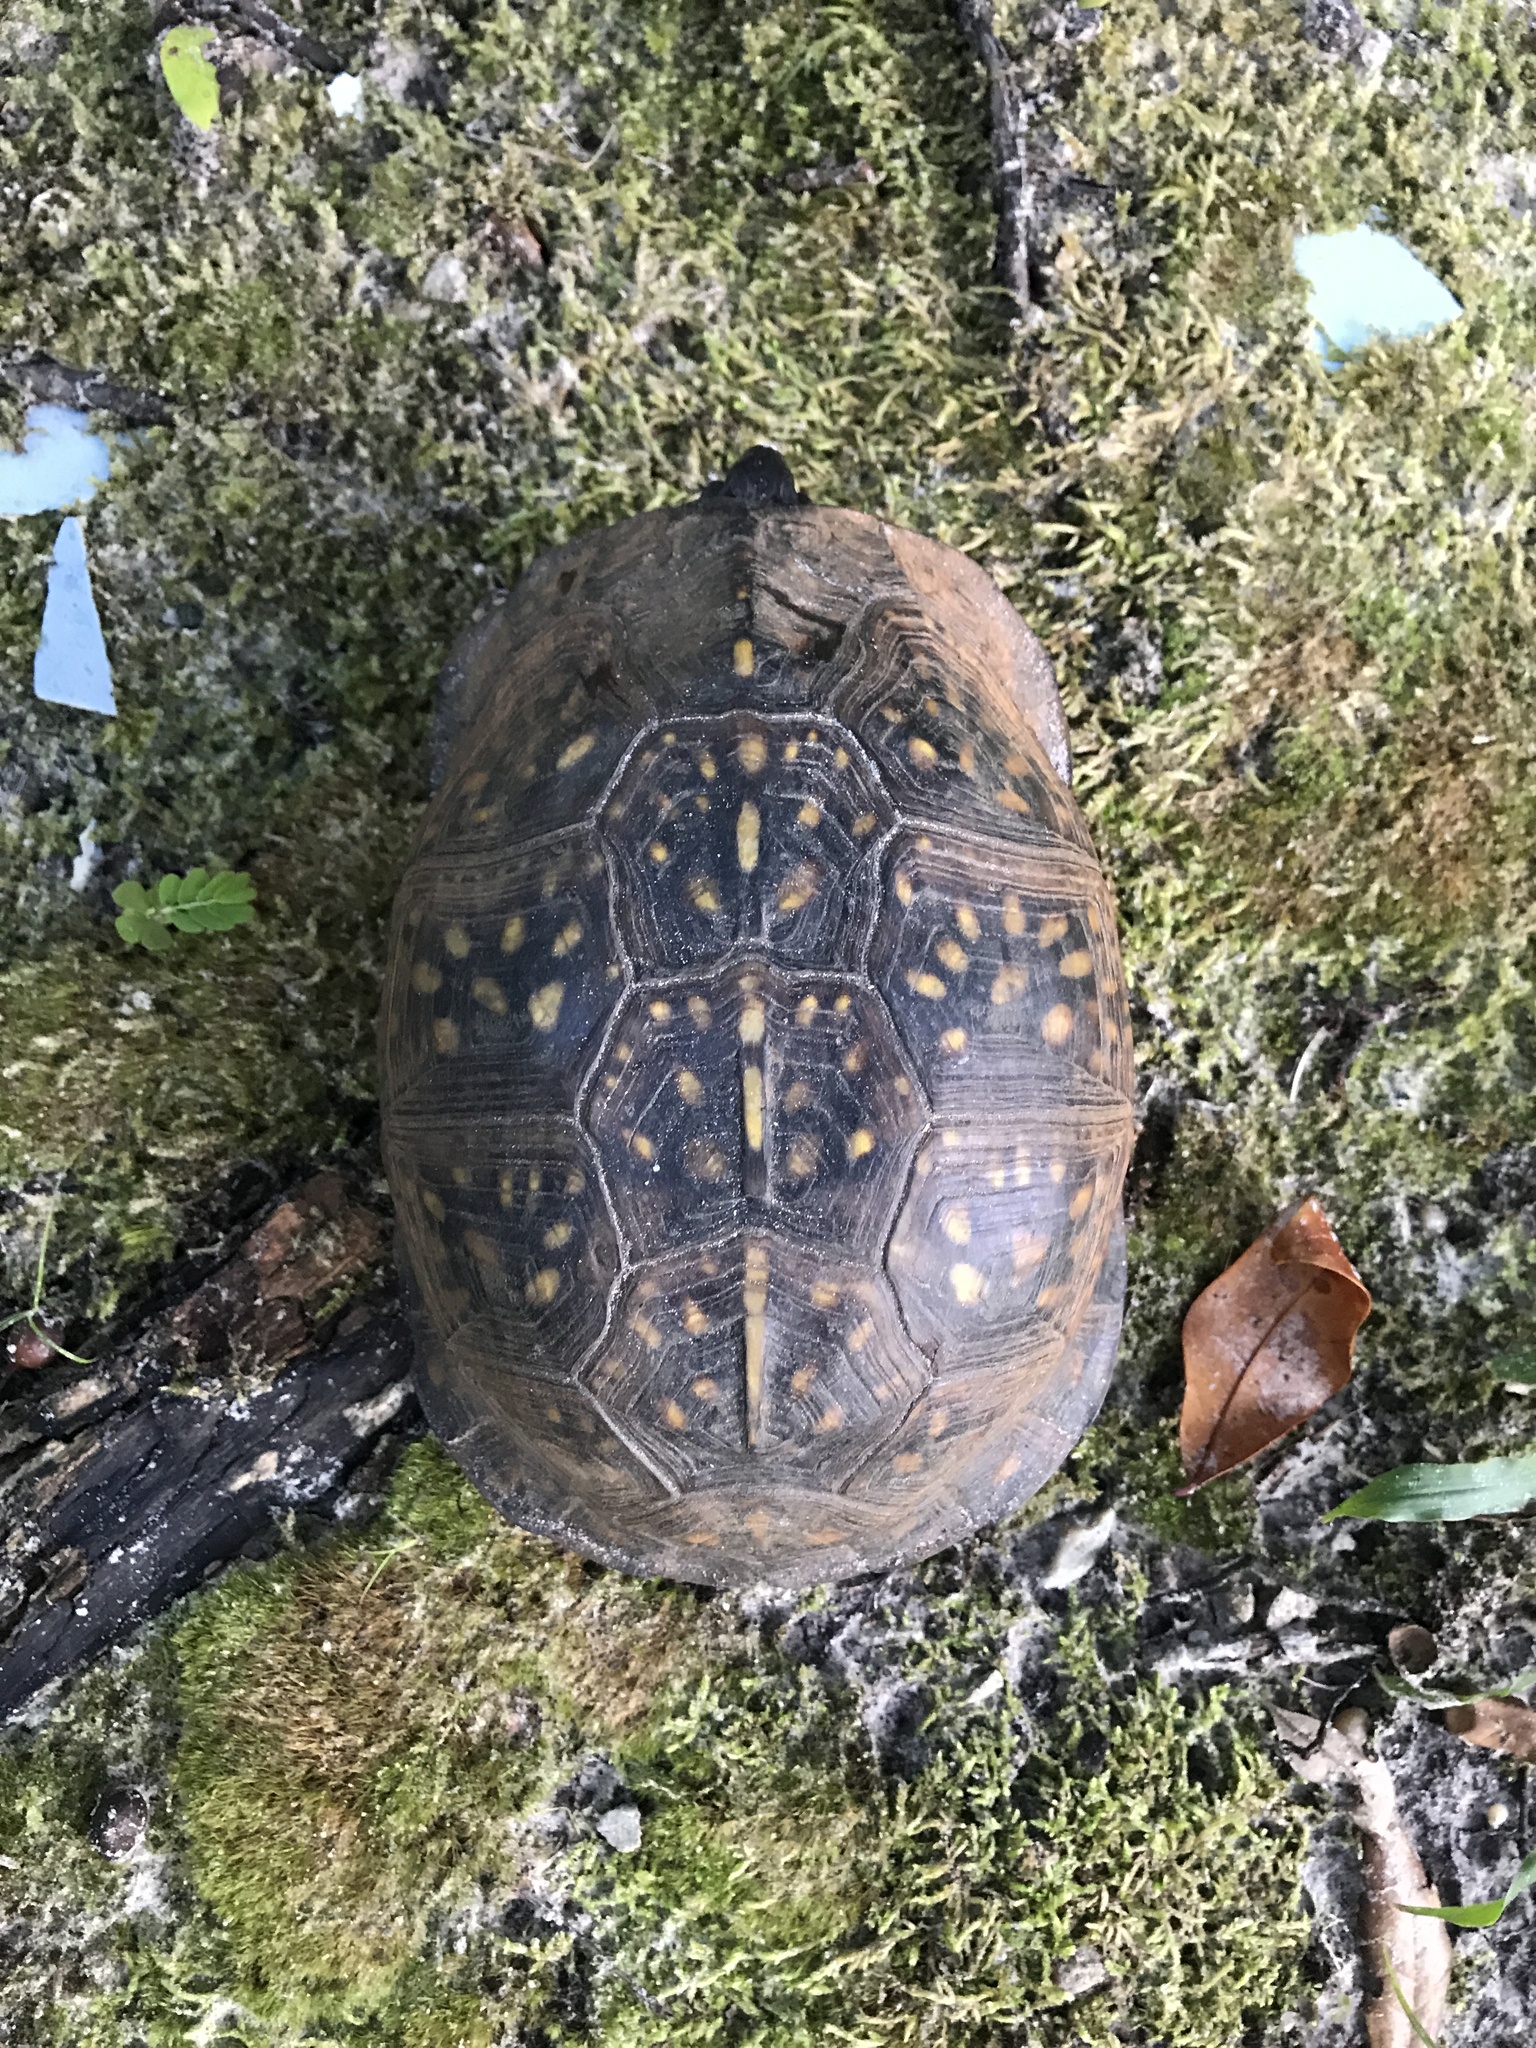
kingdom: Animalia
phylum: Chordata
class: Testudines
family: Emydidae
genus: Terrapene
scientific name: Terrapene carolina
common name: Common box turtle
